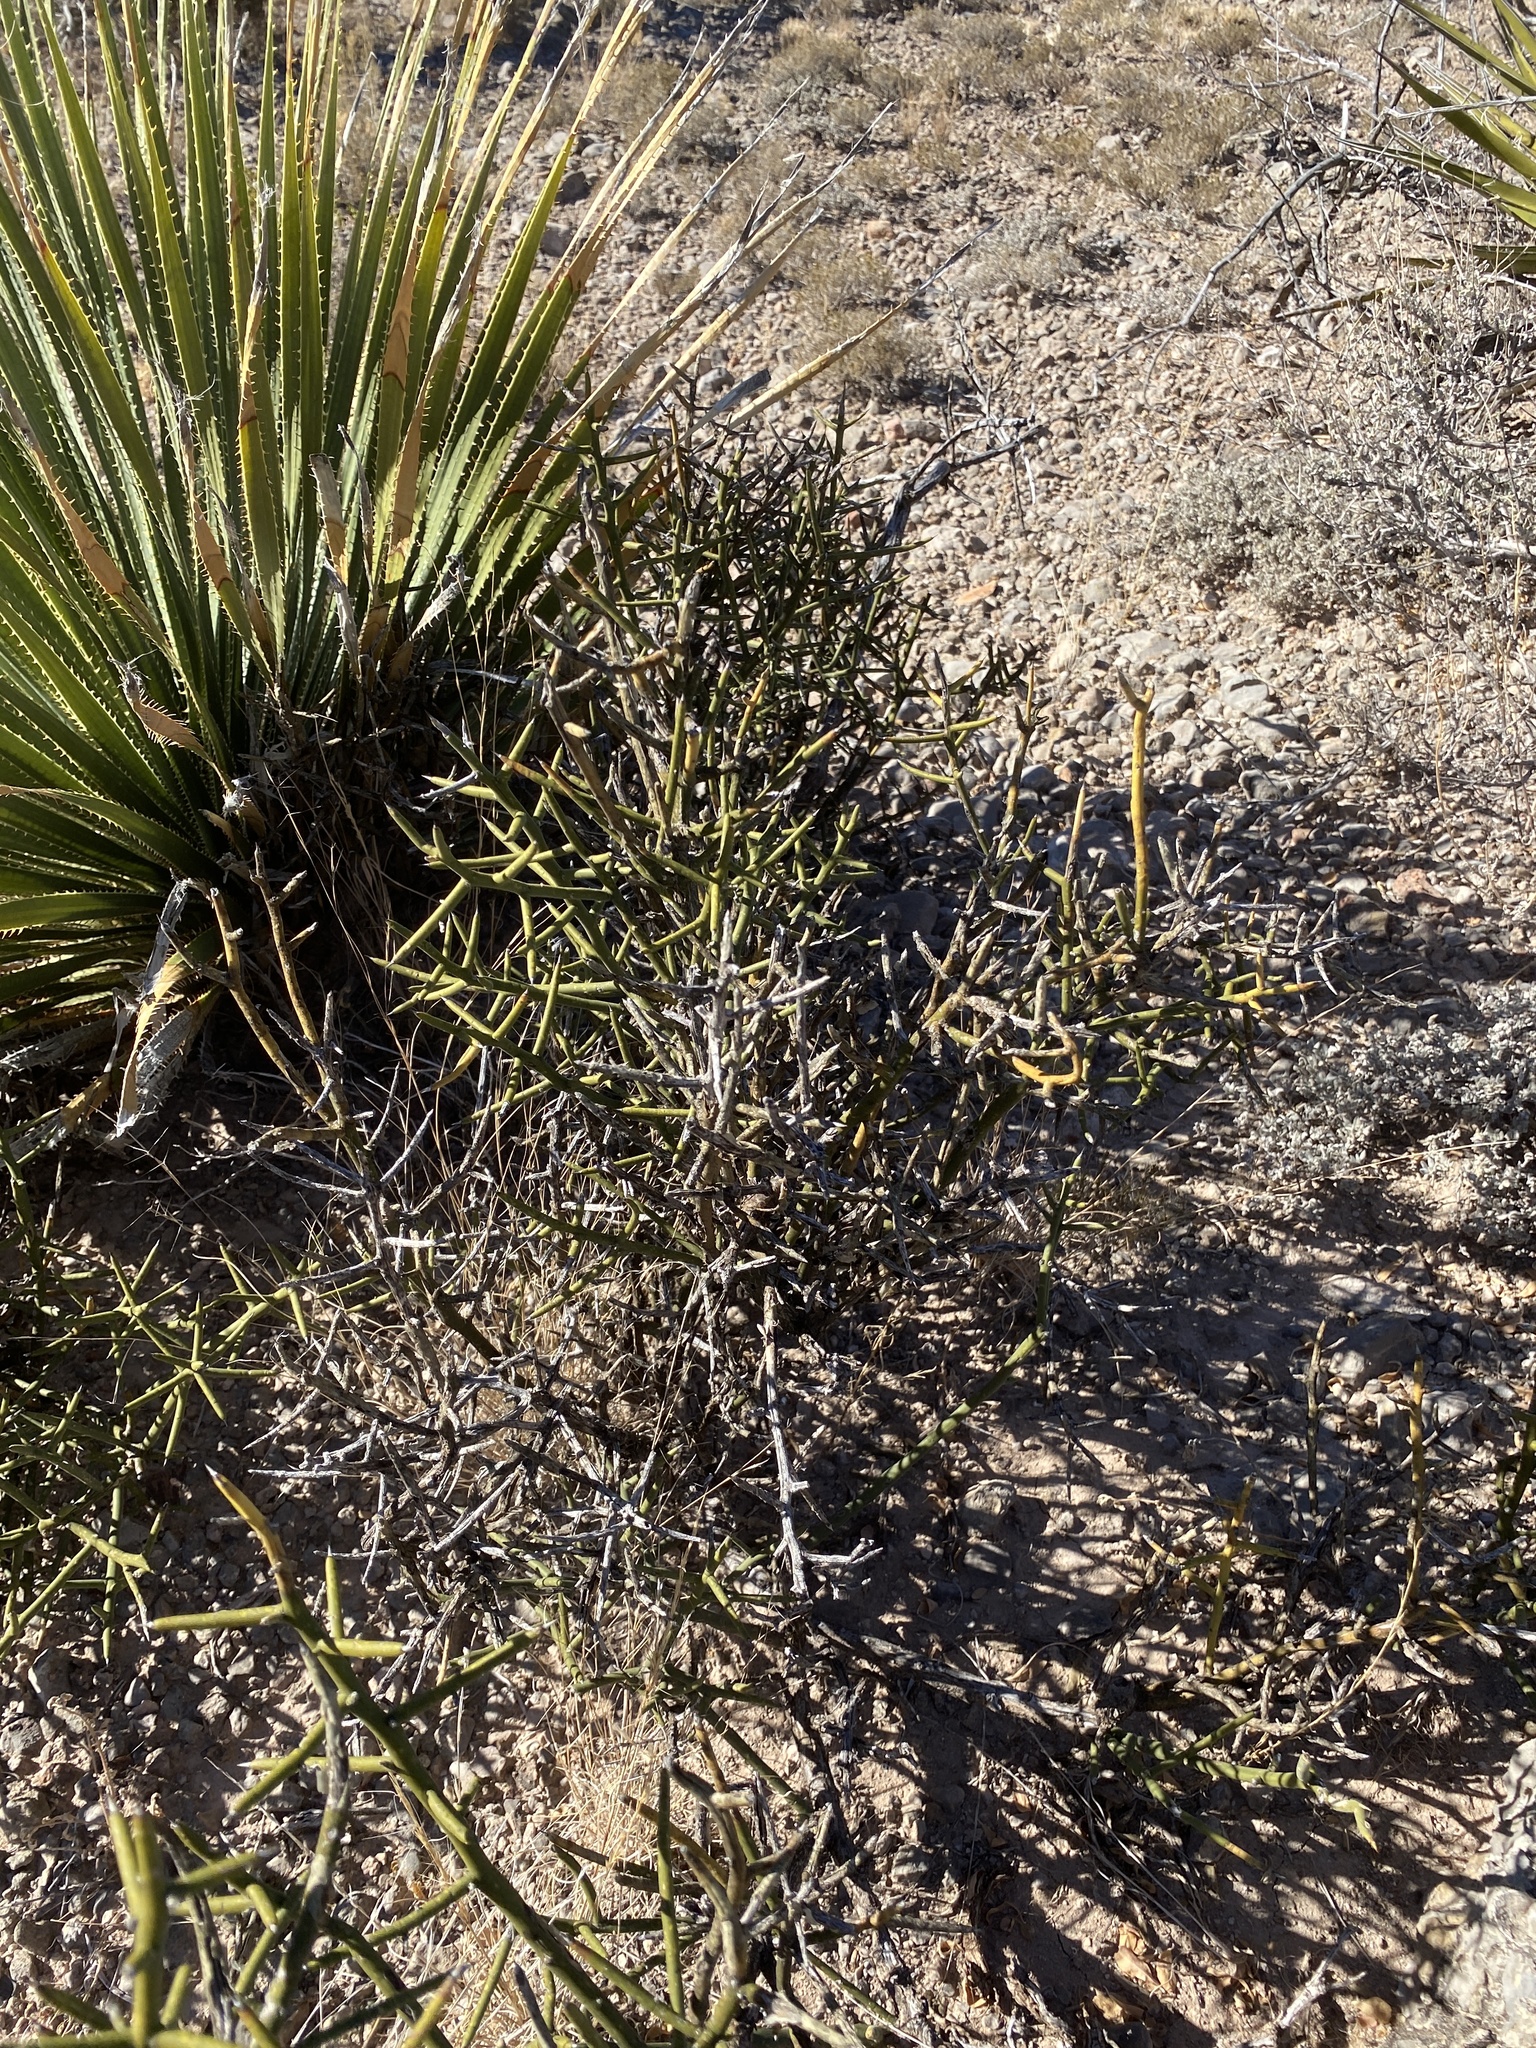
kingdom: Plantae
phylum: Tracheophyta
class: Magnoliopsida
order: Brassicales
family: Koeberliniaceae
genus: Koeberlinia
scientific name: Koeberlinia spinosa
